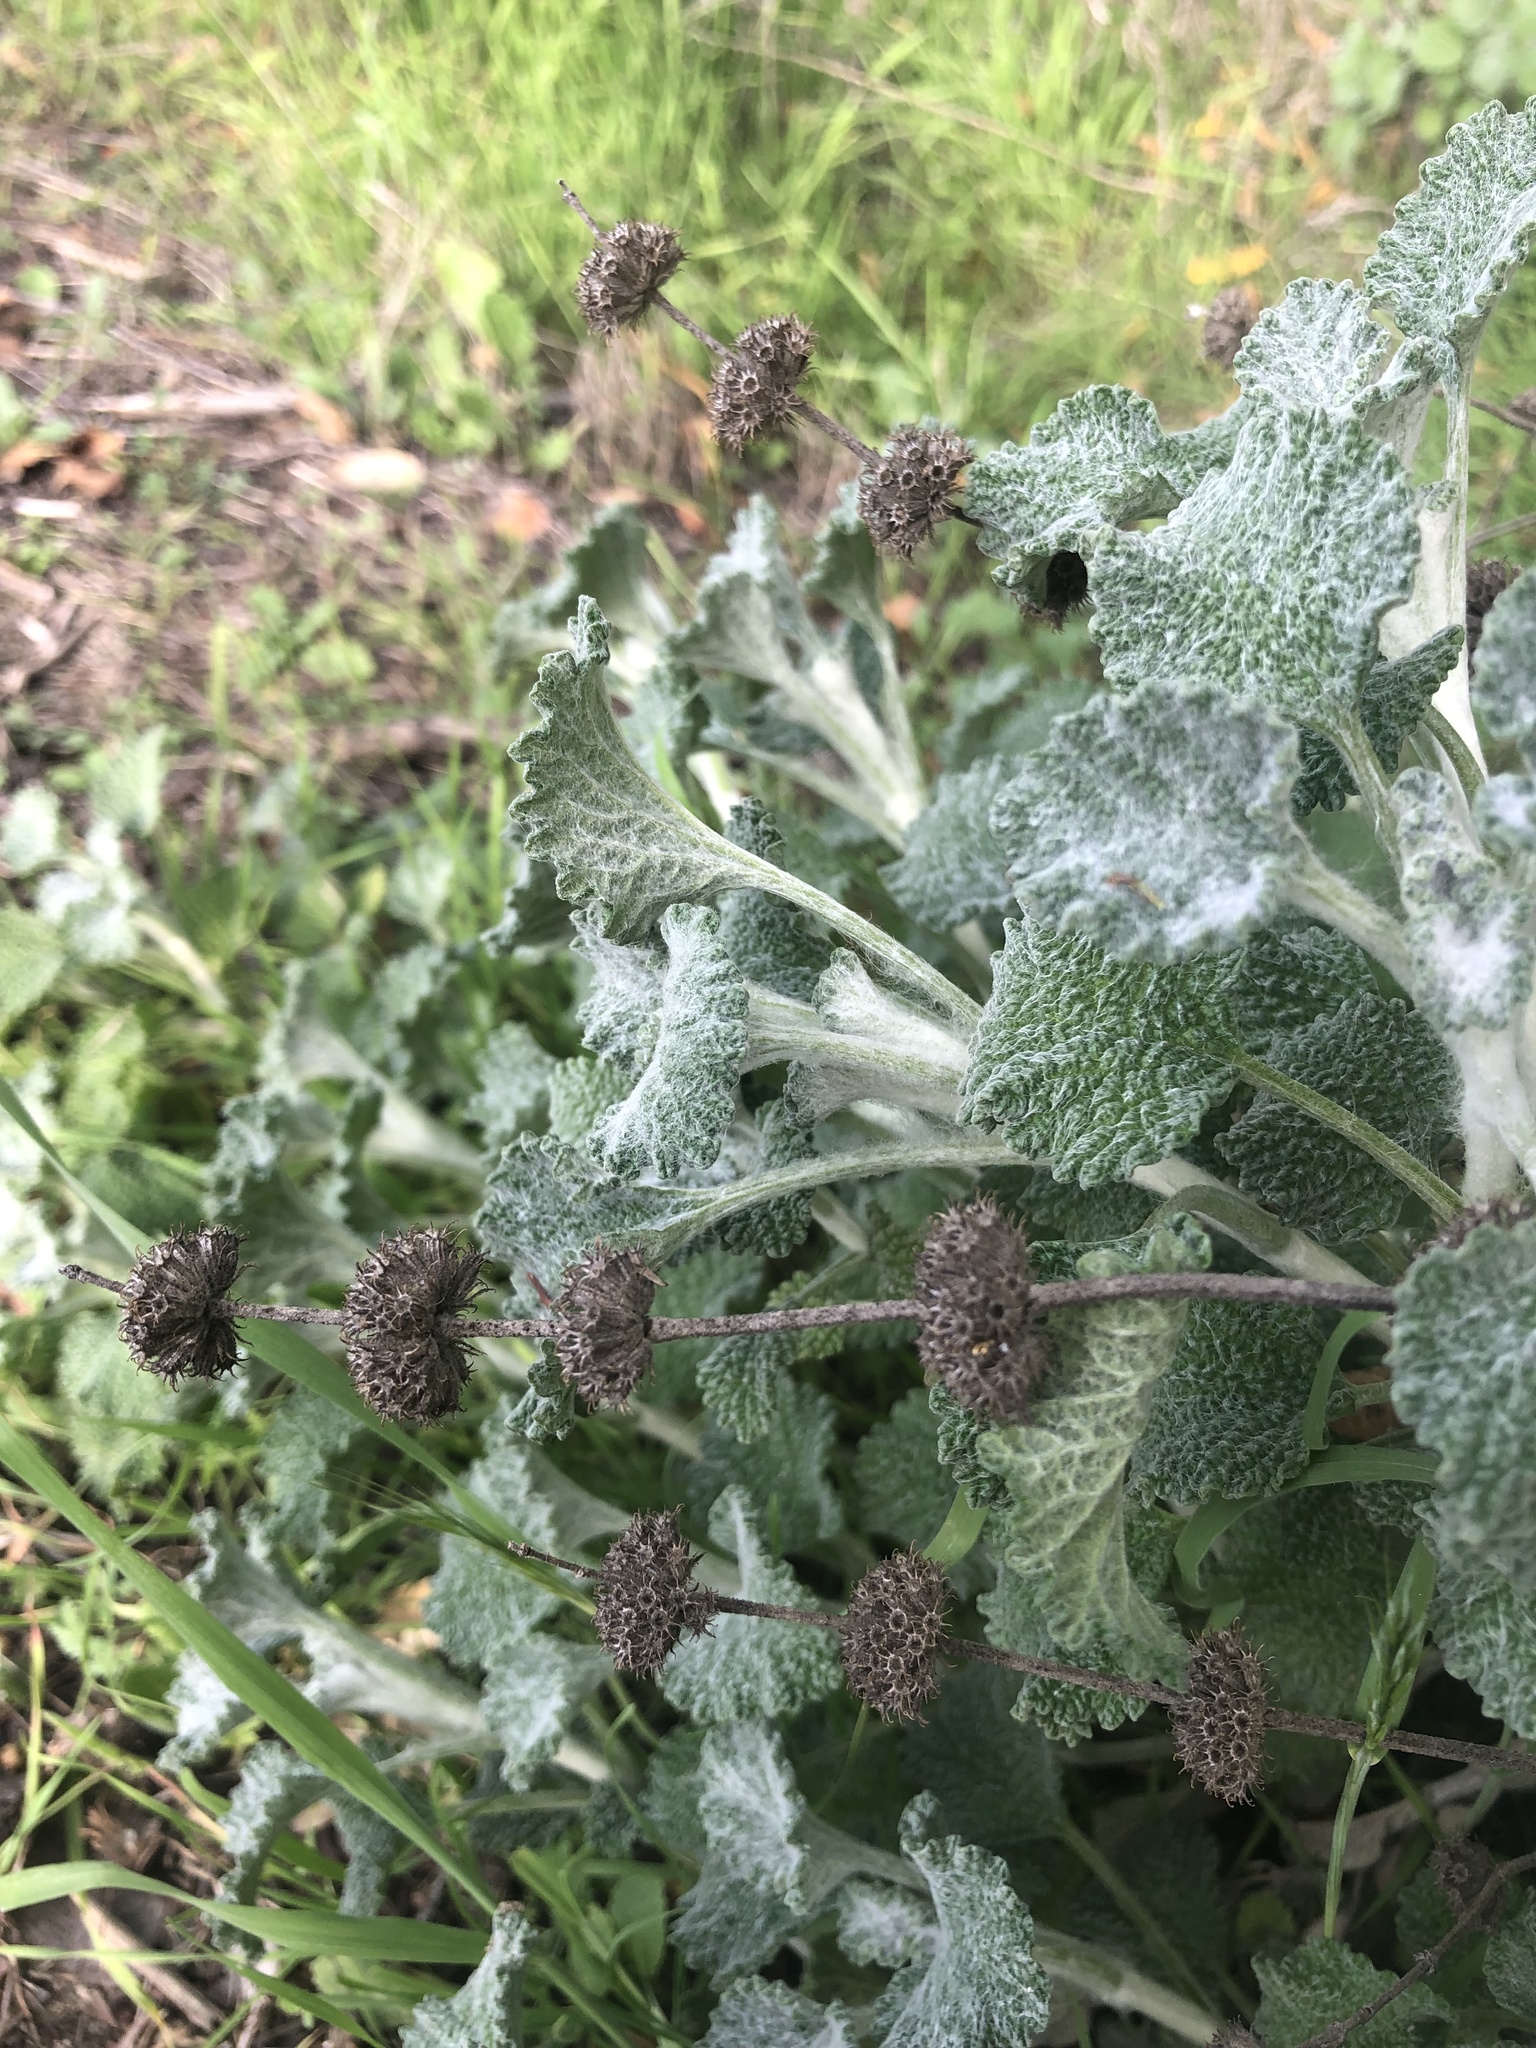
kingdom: Plantae
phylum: Tracheophyta
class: Magnoliopsida
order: Lamiales
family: Lamiaceae
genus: Marrubium
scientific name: Marrubium vulgare
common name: Horehound
